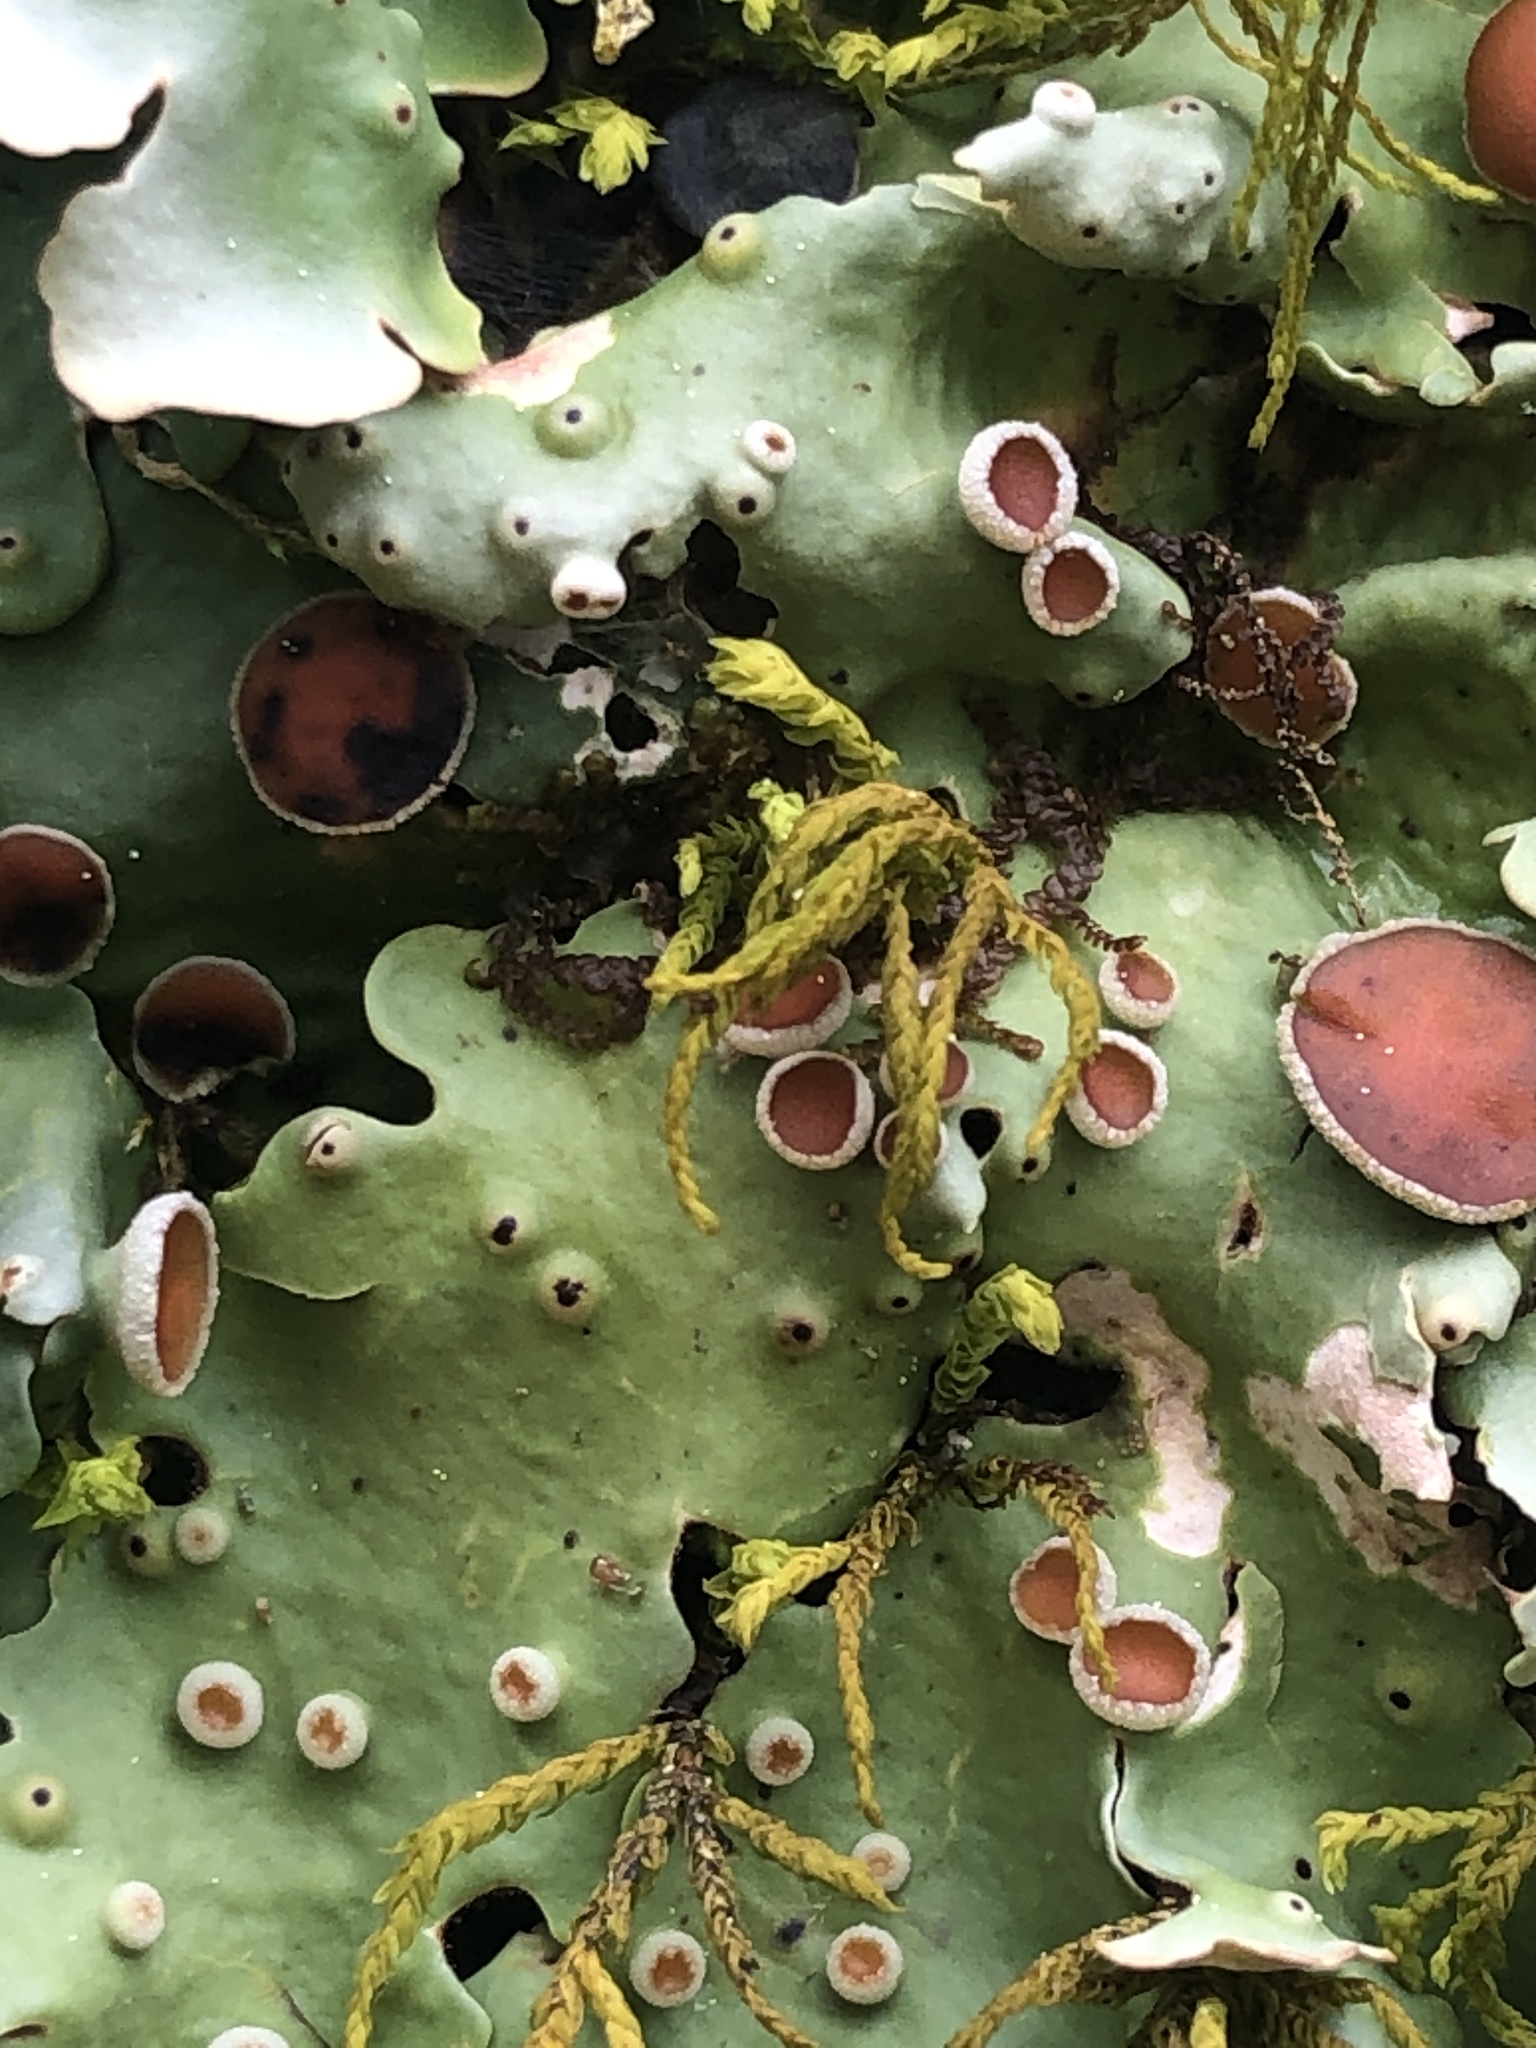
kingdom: Fungi
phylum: Ascomycota
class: Lecanoromycetes
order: Peltigerales
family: Lobariaceae
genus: Ricasolia
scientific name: Ricasolia quercizans
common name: Smooth lungwort
